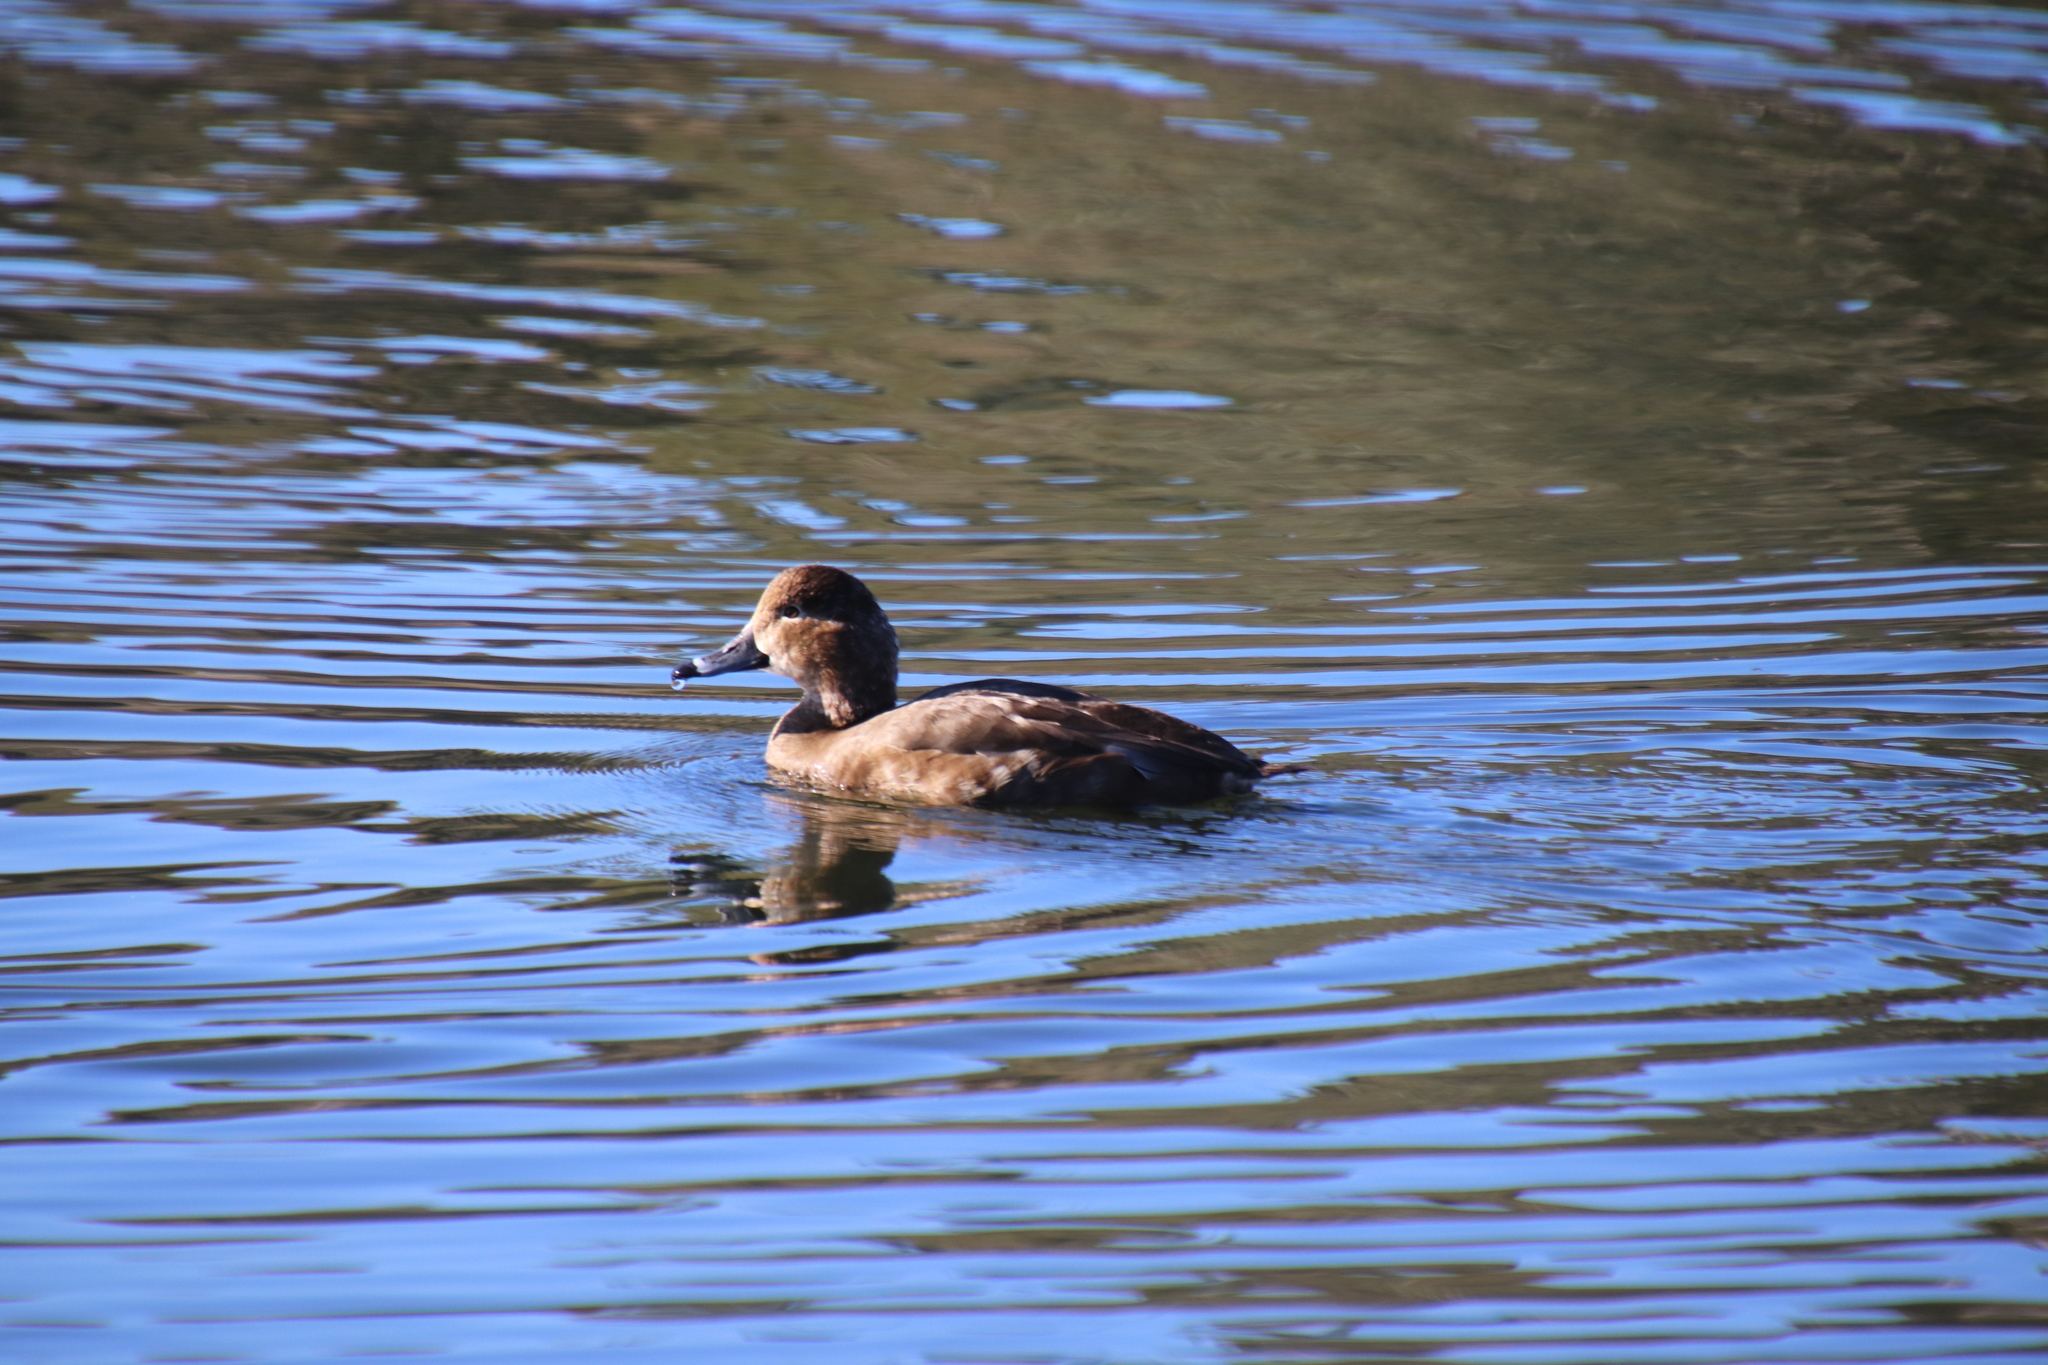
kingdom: Animalia
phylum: Chordata
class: Aves
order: Anseriformes
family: Anatidae
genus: Aythya
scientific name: Aythya collaris
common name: Ring-necked duck
